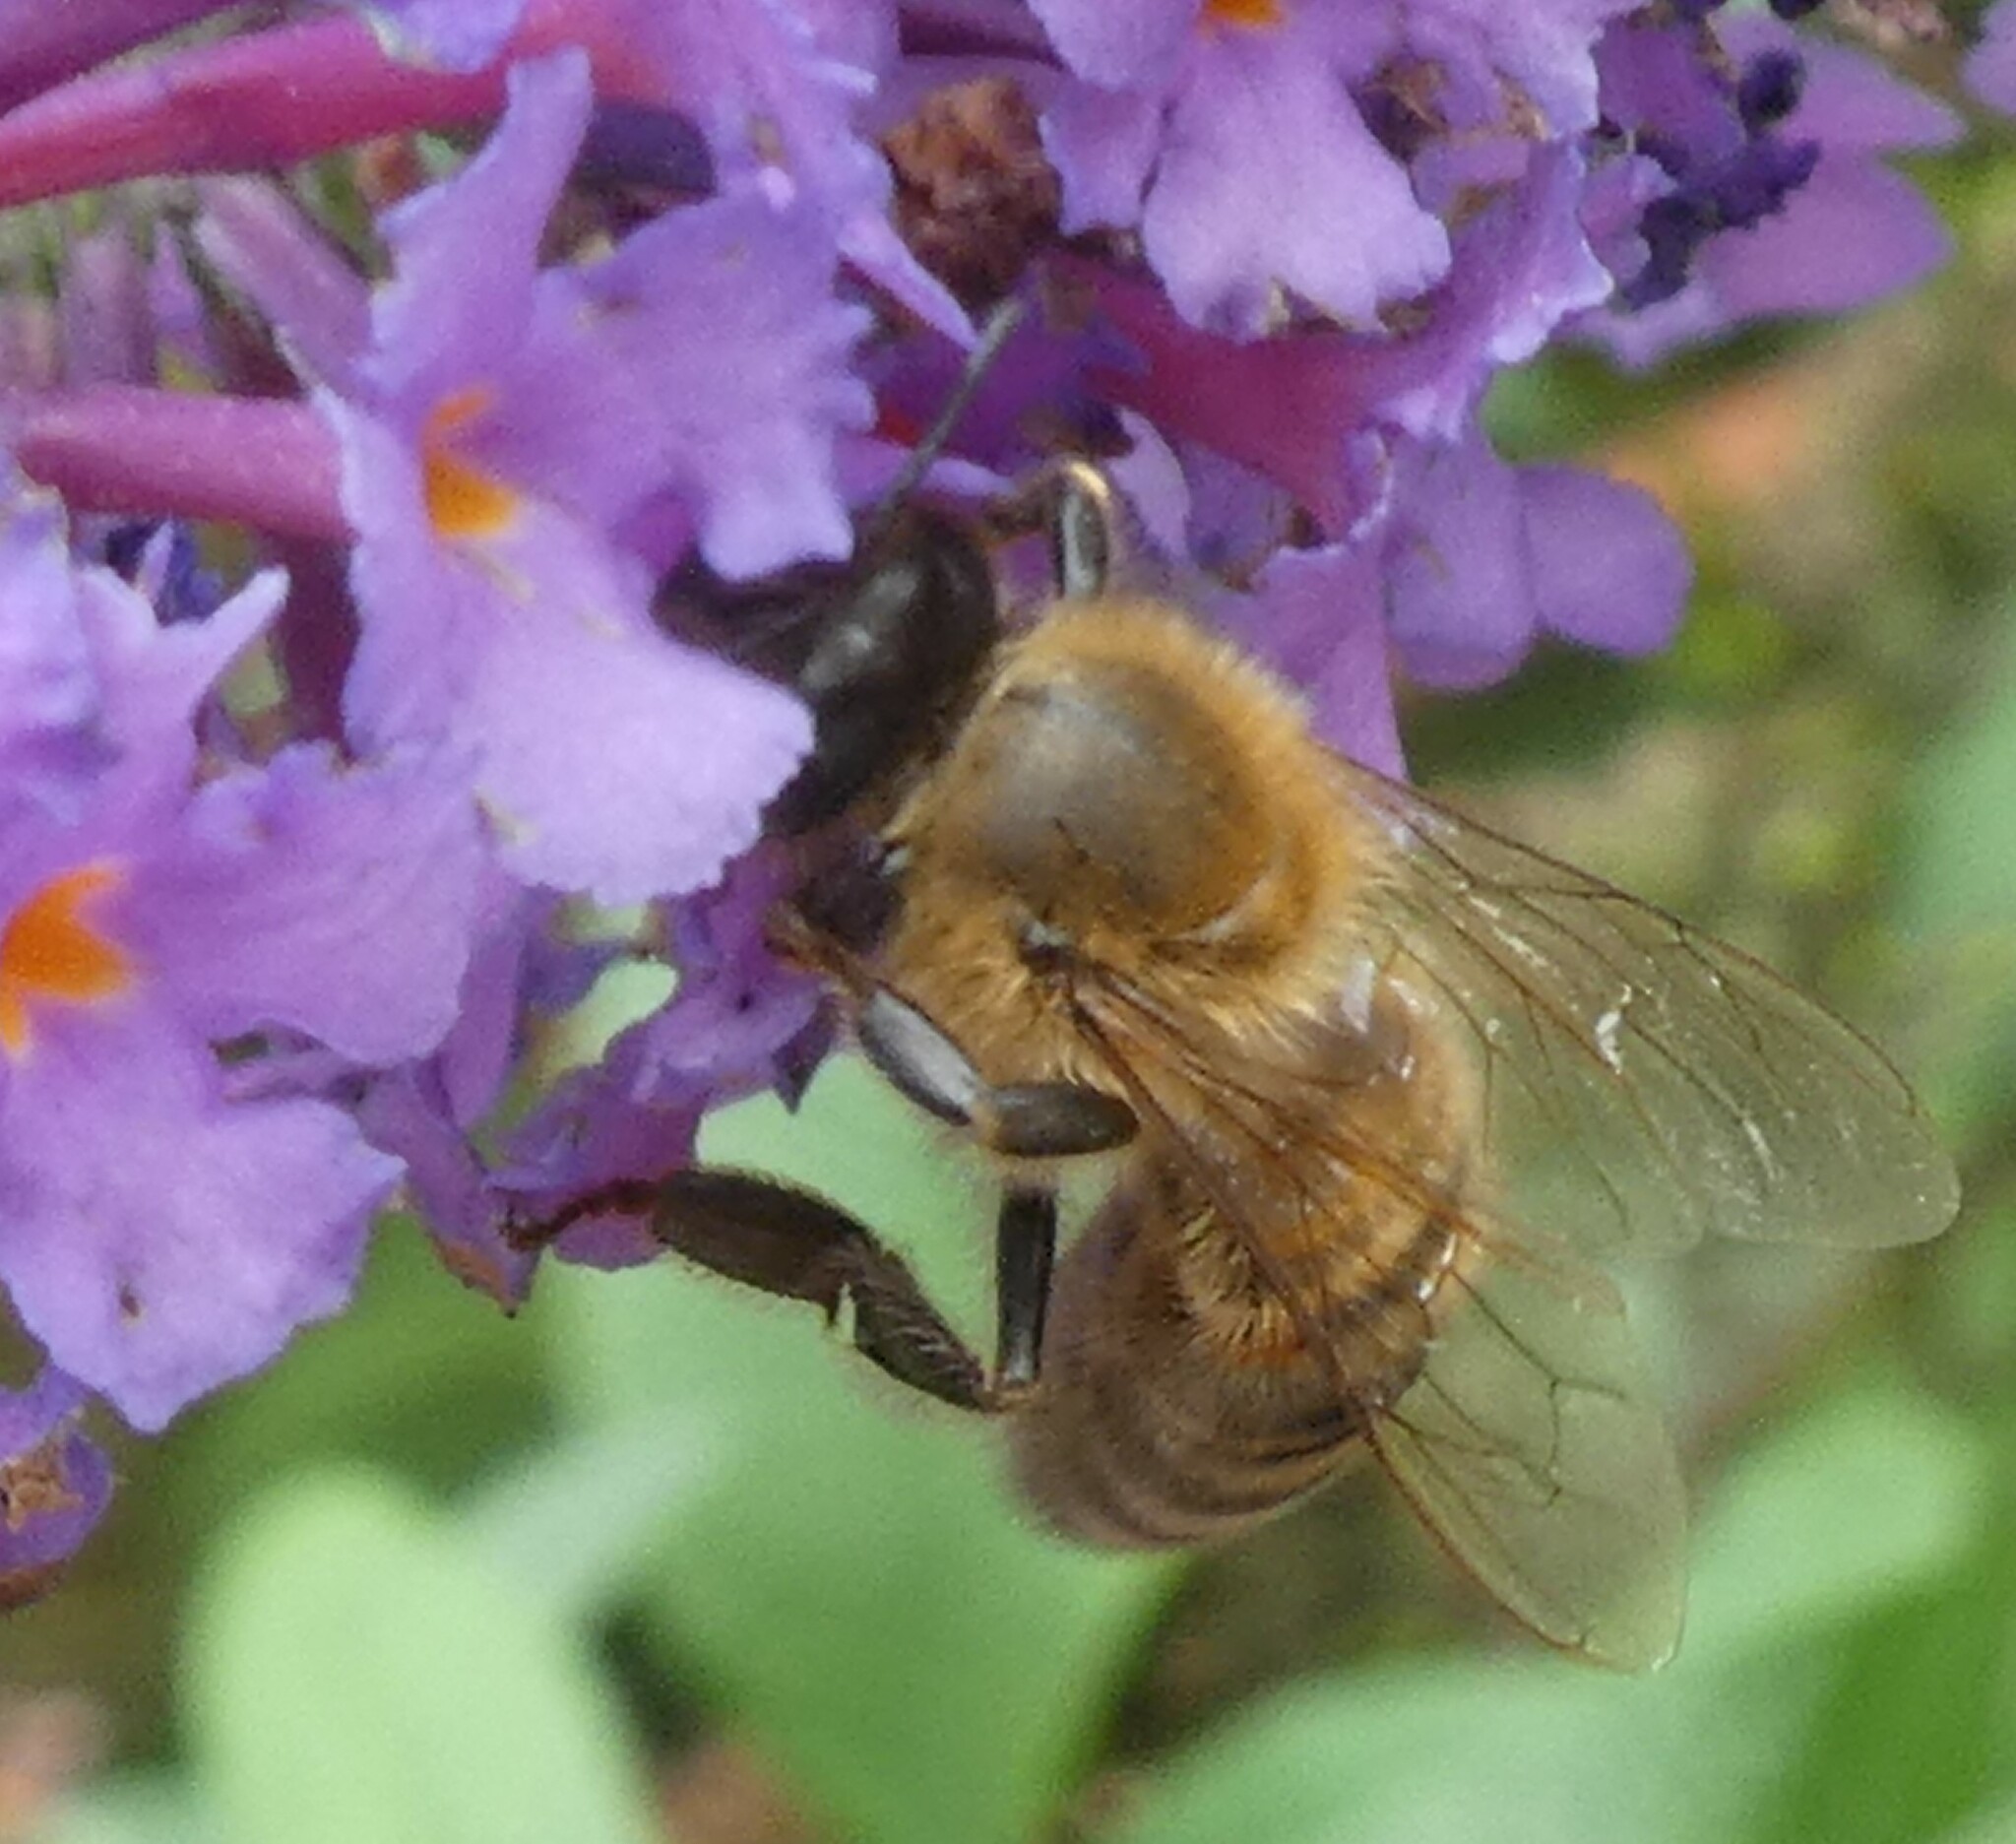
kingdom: Animalia
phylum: Arthropoda
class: Insecta
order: Hymenoptera
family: Apidae
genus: Apis
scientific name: Apis mellifera
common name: Honey bee
